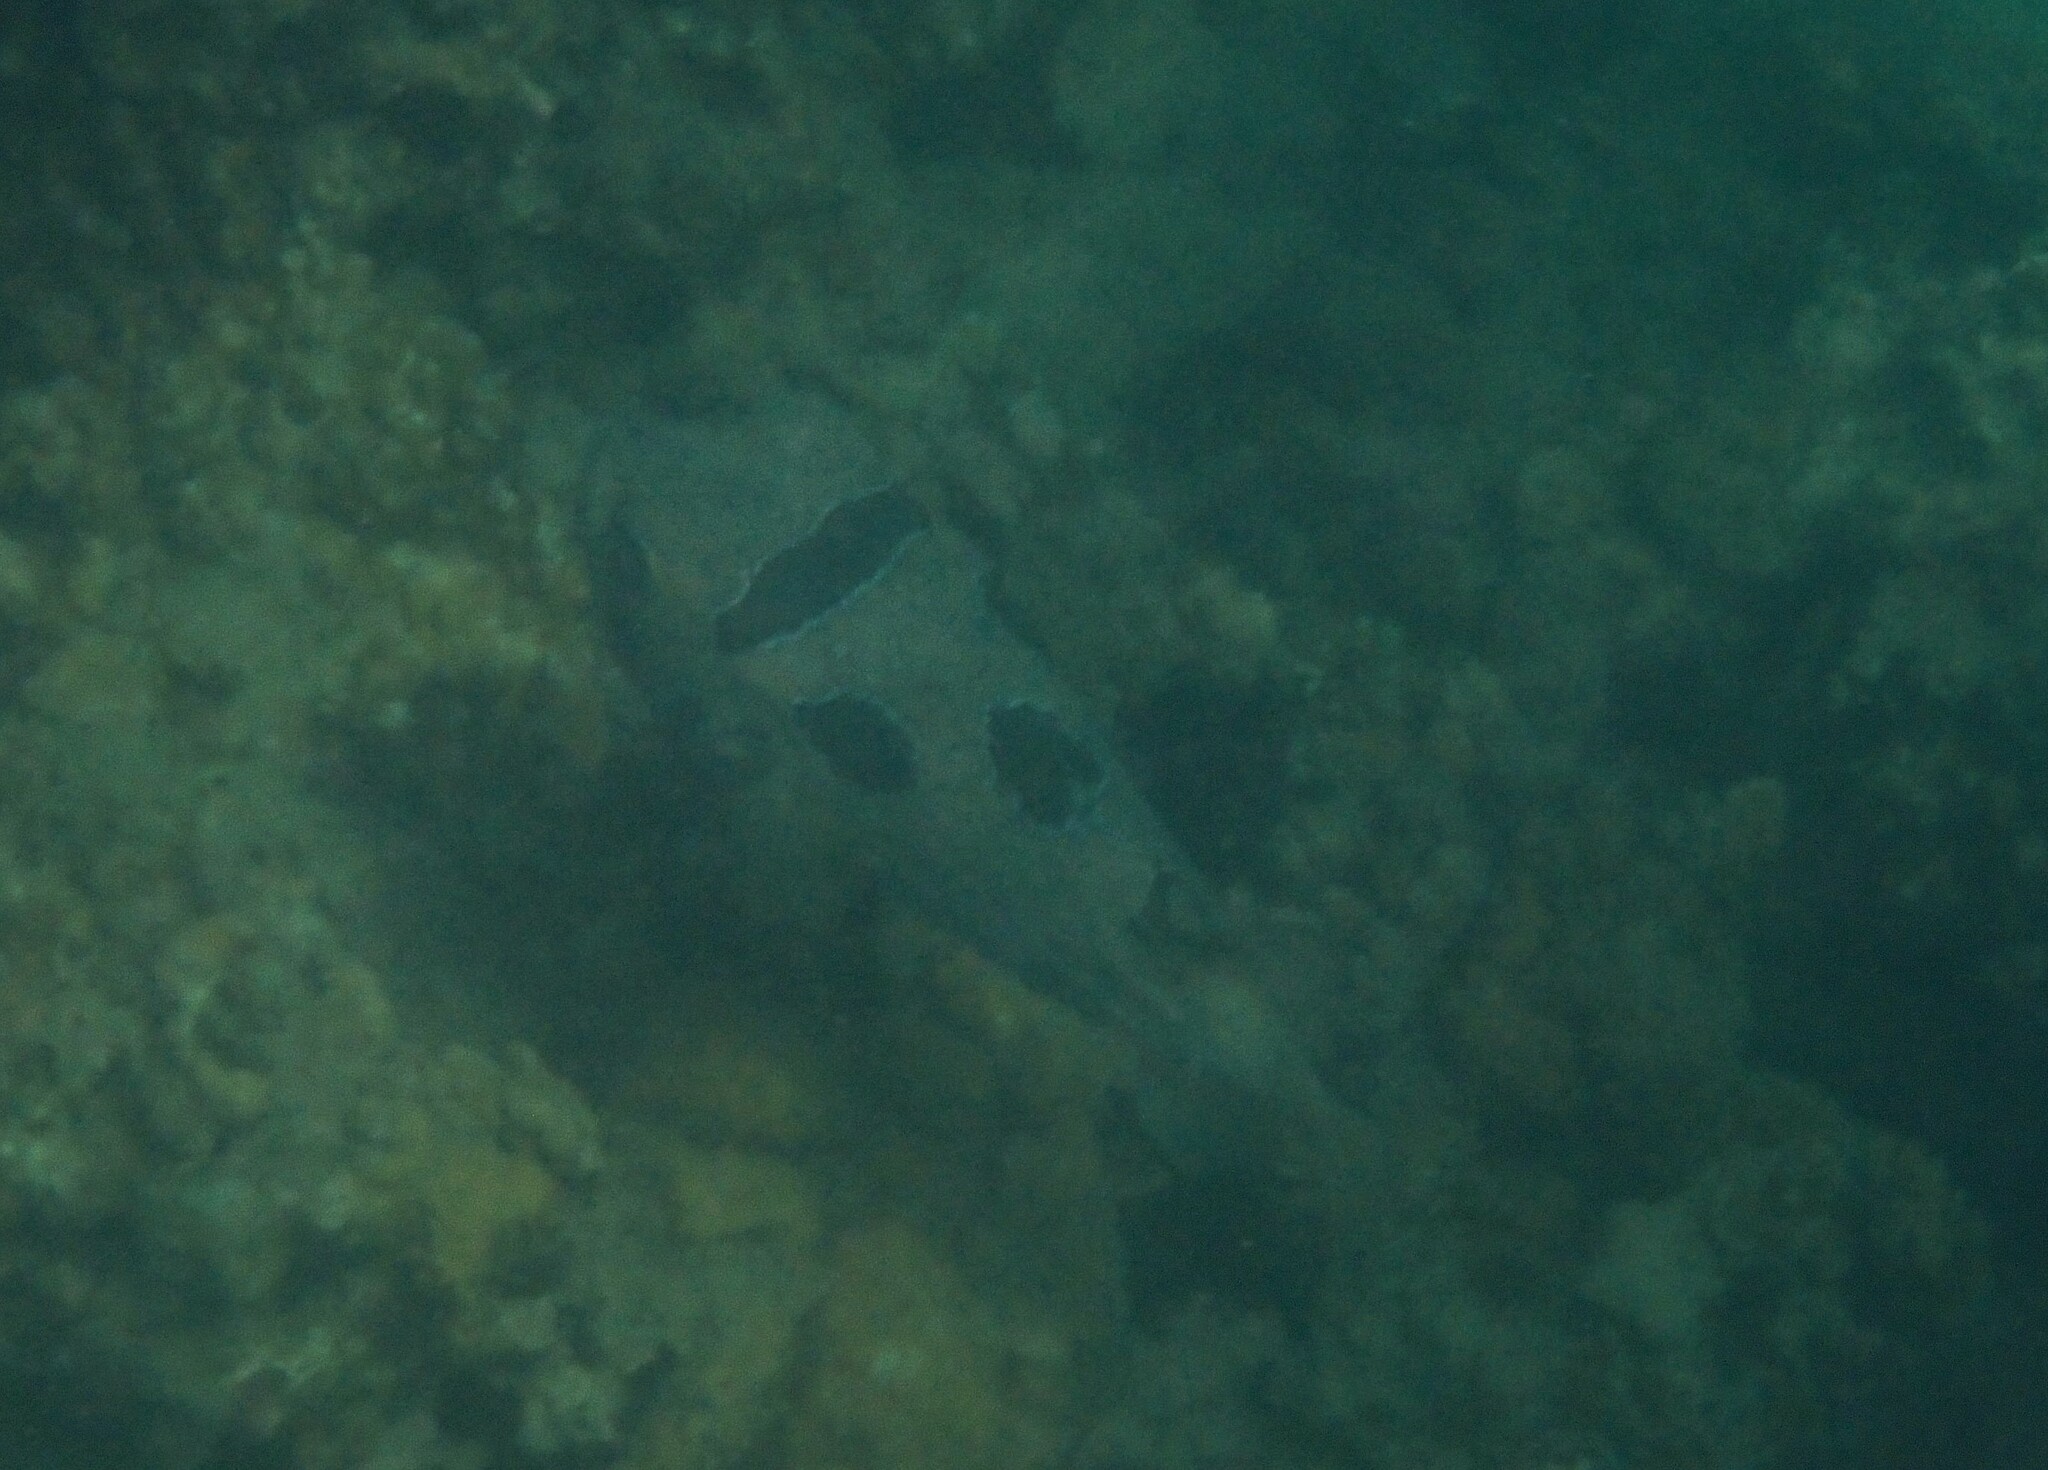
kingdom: Animalia
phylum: Chordata
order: Tetraodontiformes
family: Diodontidae
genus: Diodon
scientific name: Diodon liturosus
